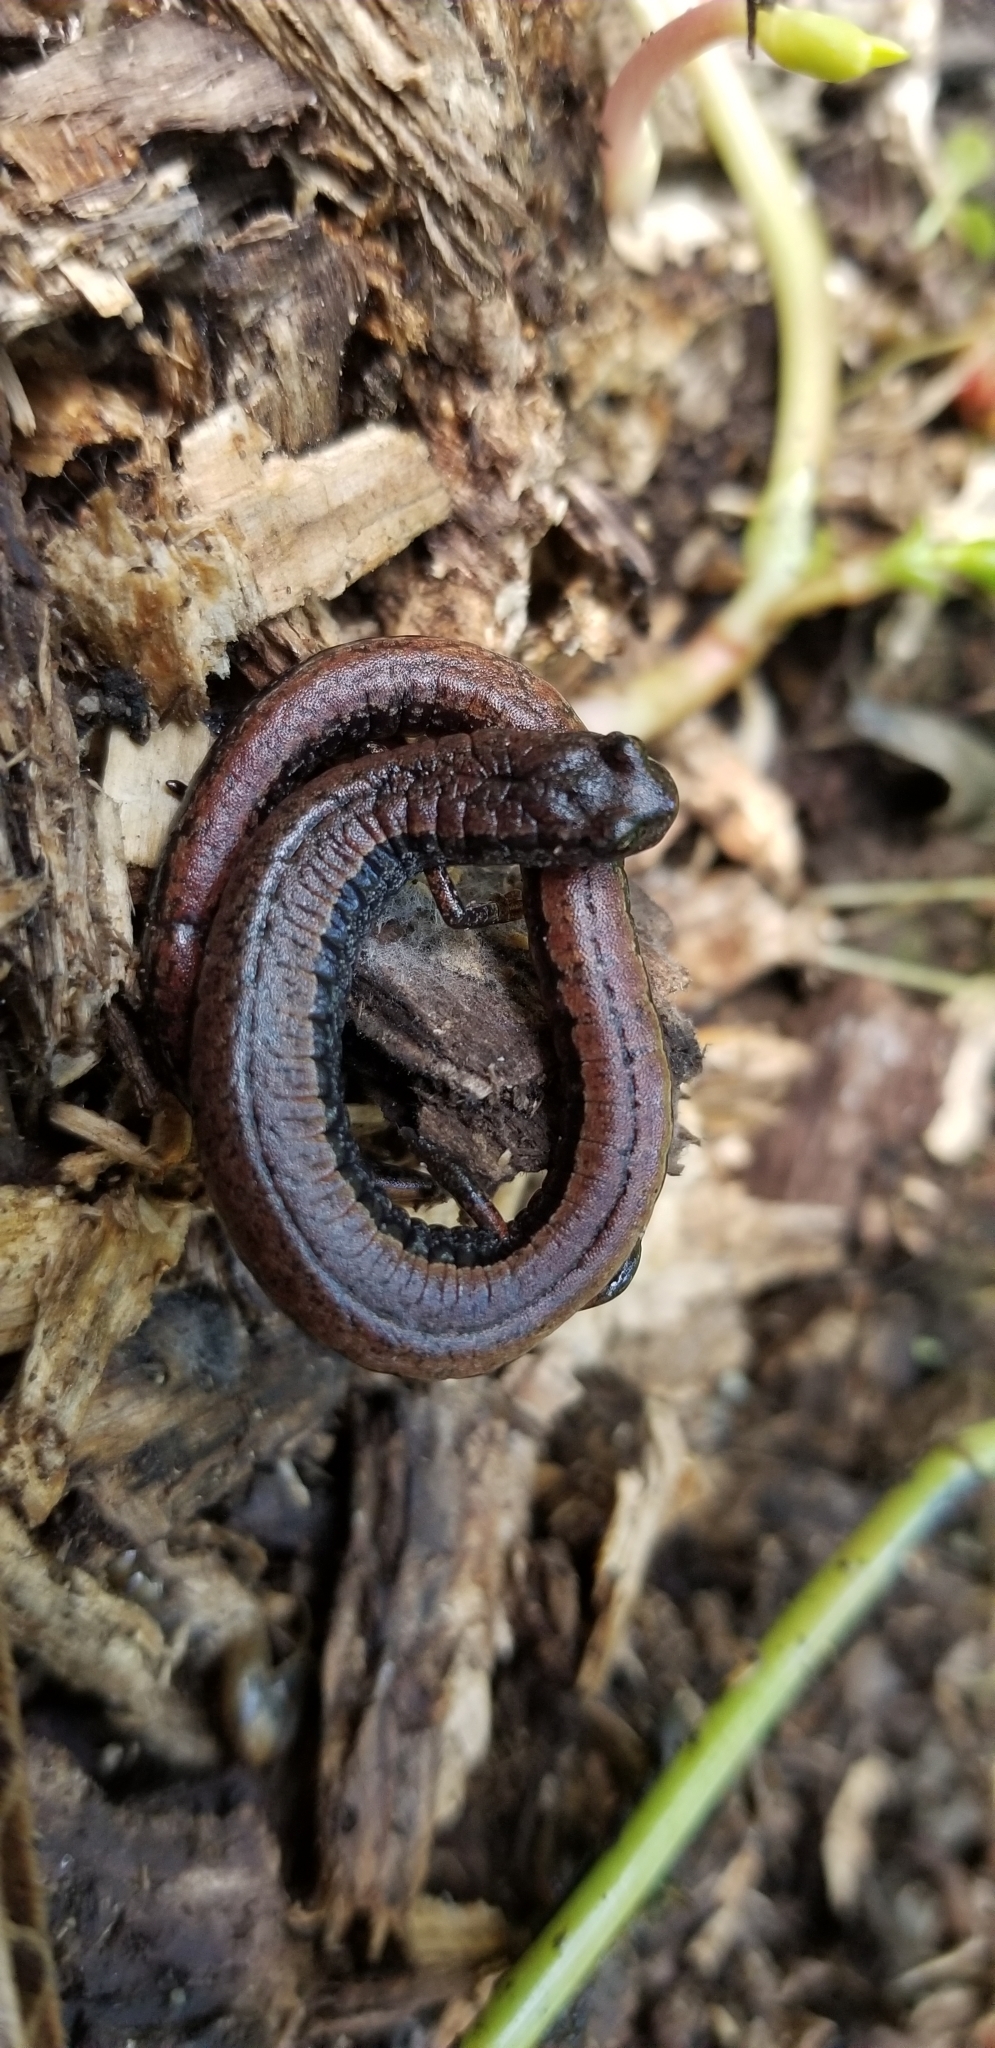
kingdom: Animalia
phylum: Chordata
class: Amphibia
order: Caudata
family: Plethodontidae
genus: Batrachoseps
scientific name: Batrachoseps attenuatus
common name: California slender salamander
